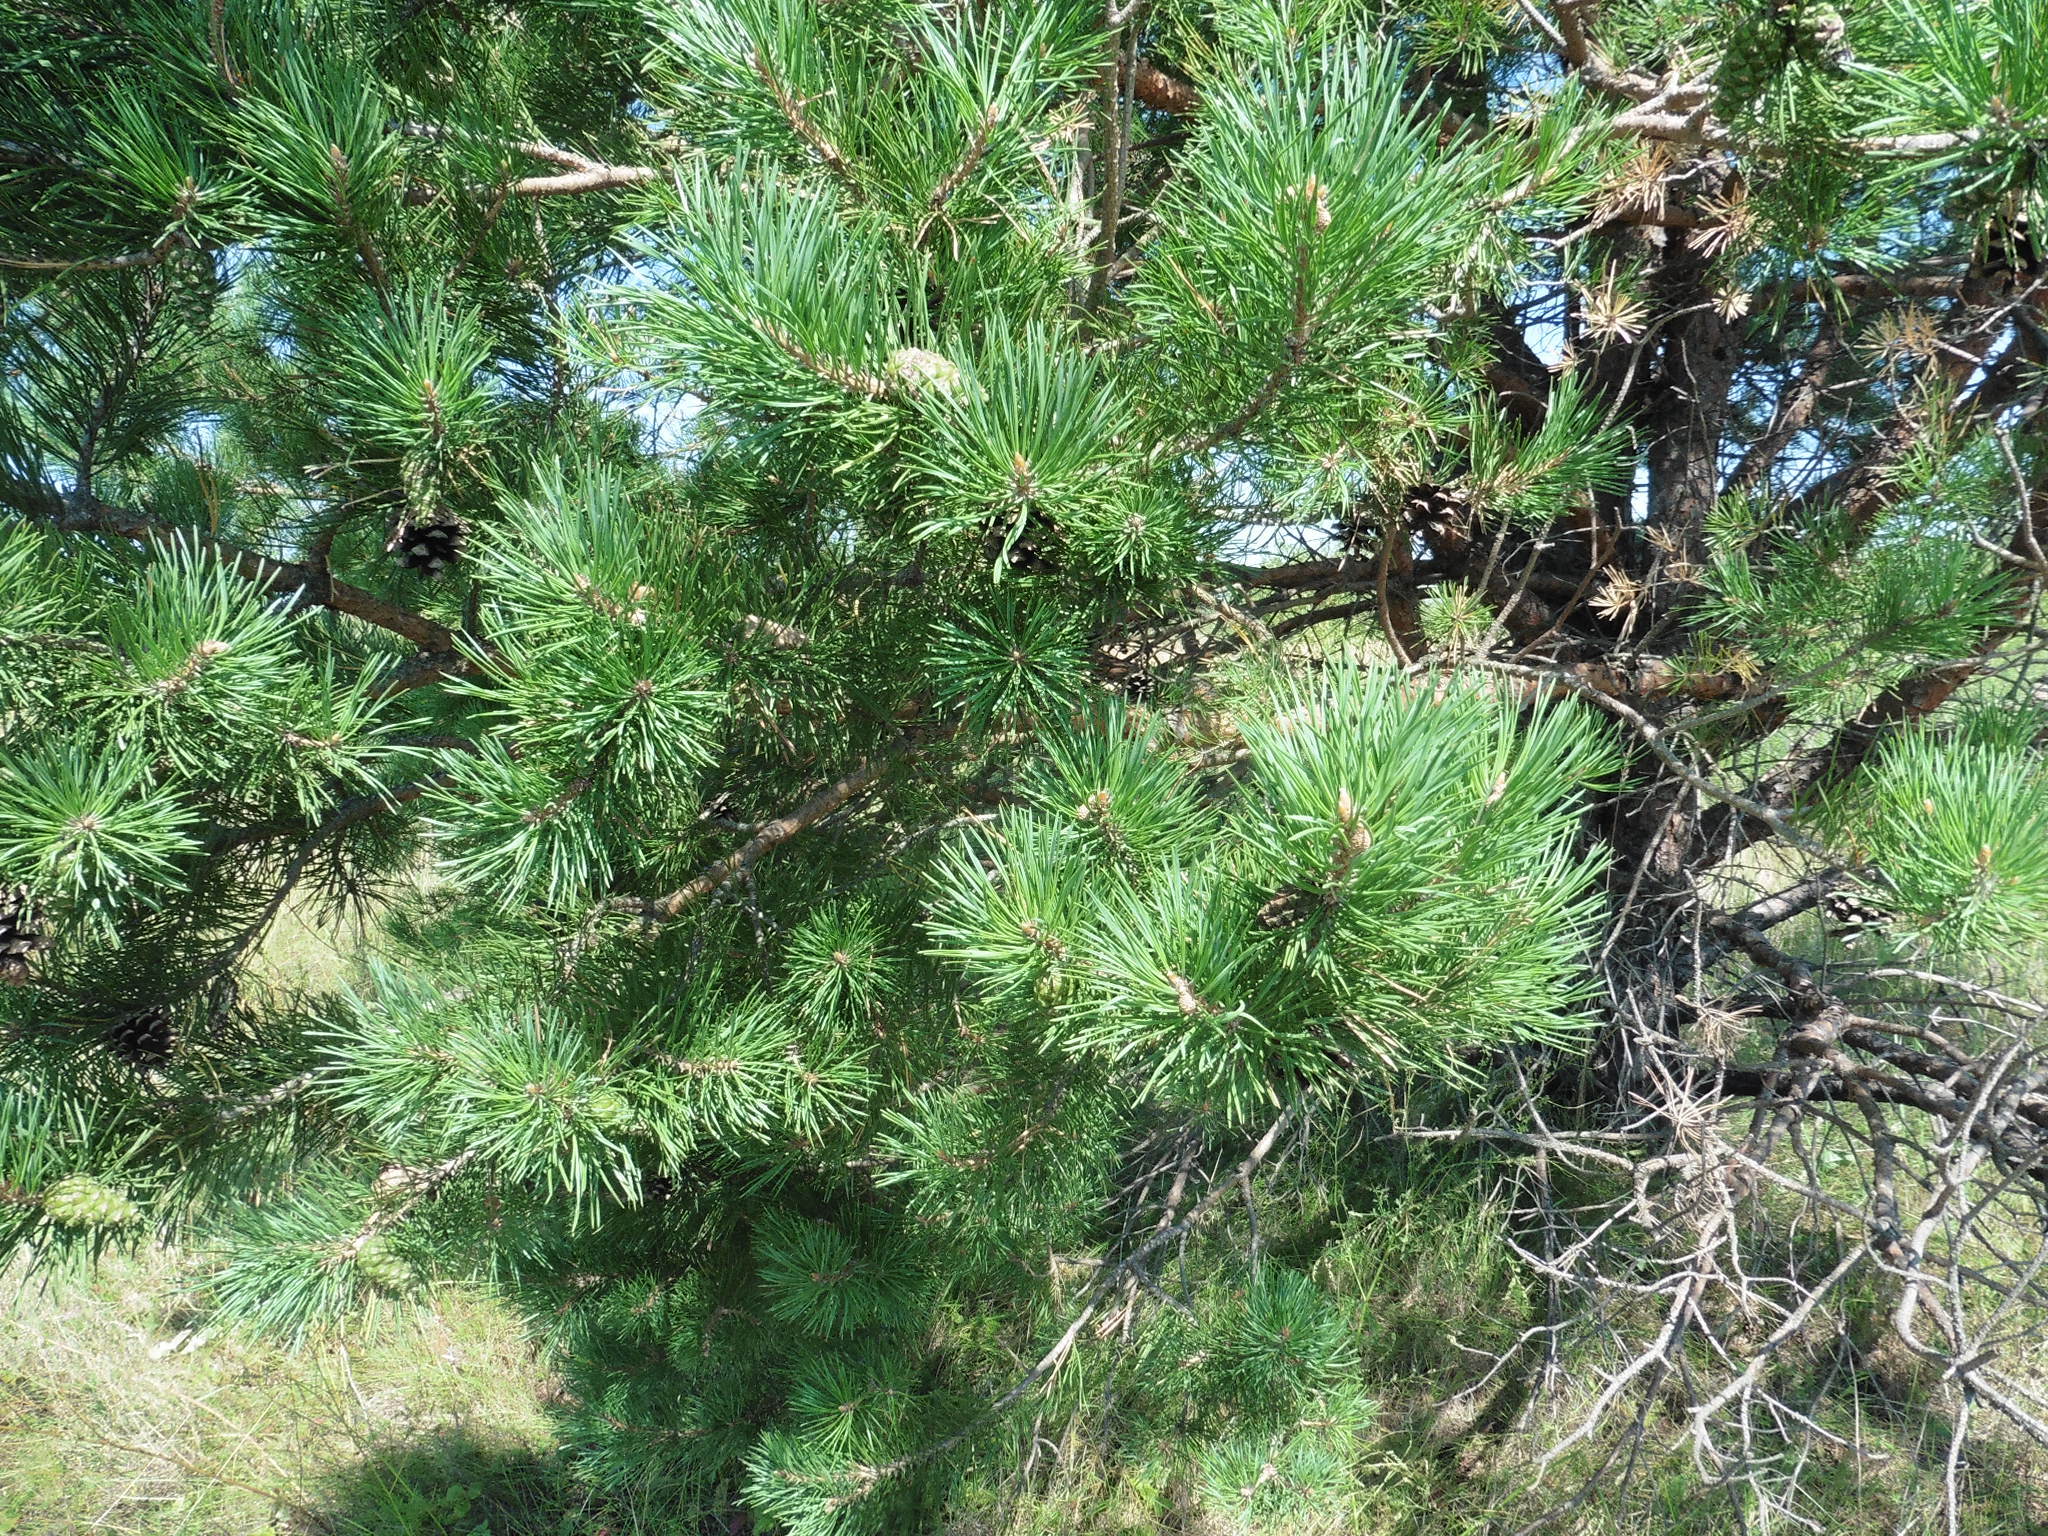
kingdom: Plantae
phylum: Tracheophyta
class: Pinopsida
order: Pinales
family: Pinaceae
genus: Pinus
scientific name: Pinus sylvestris
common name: Scots pine
